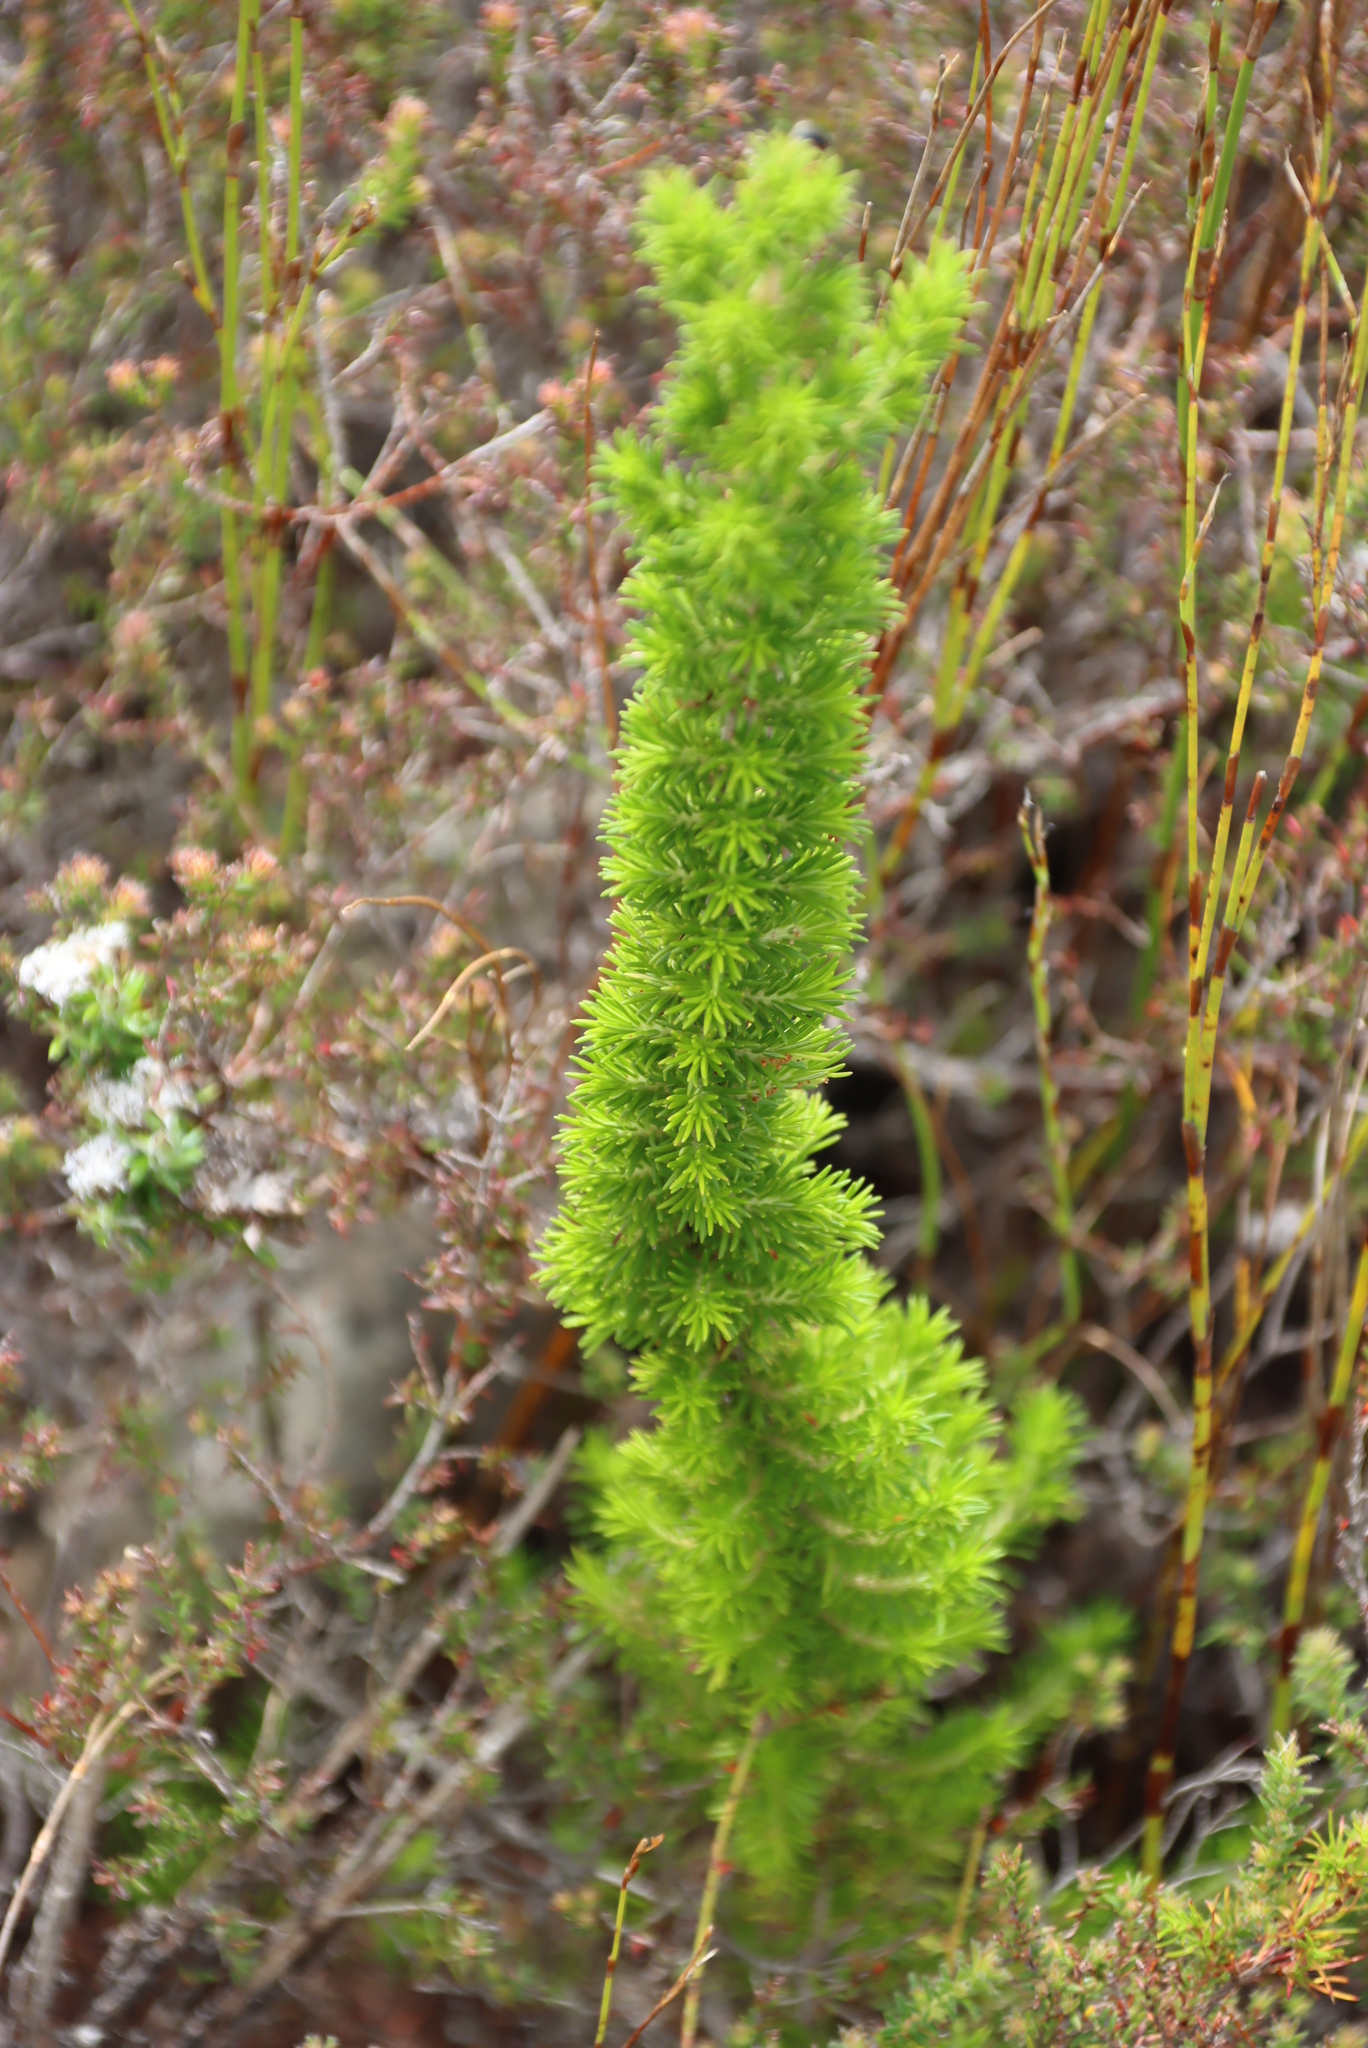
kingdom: Plantae
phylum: Tracheophyta
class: Magnoliopsida
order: Ericales
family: Ericaceae
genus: Erica
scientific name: Erica coccinea
